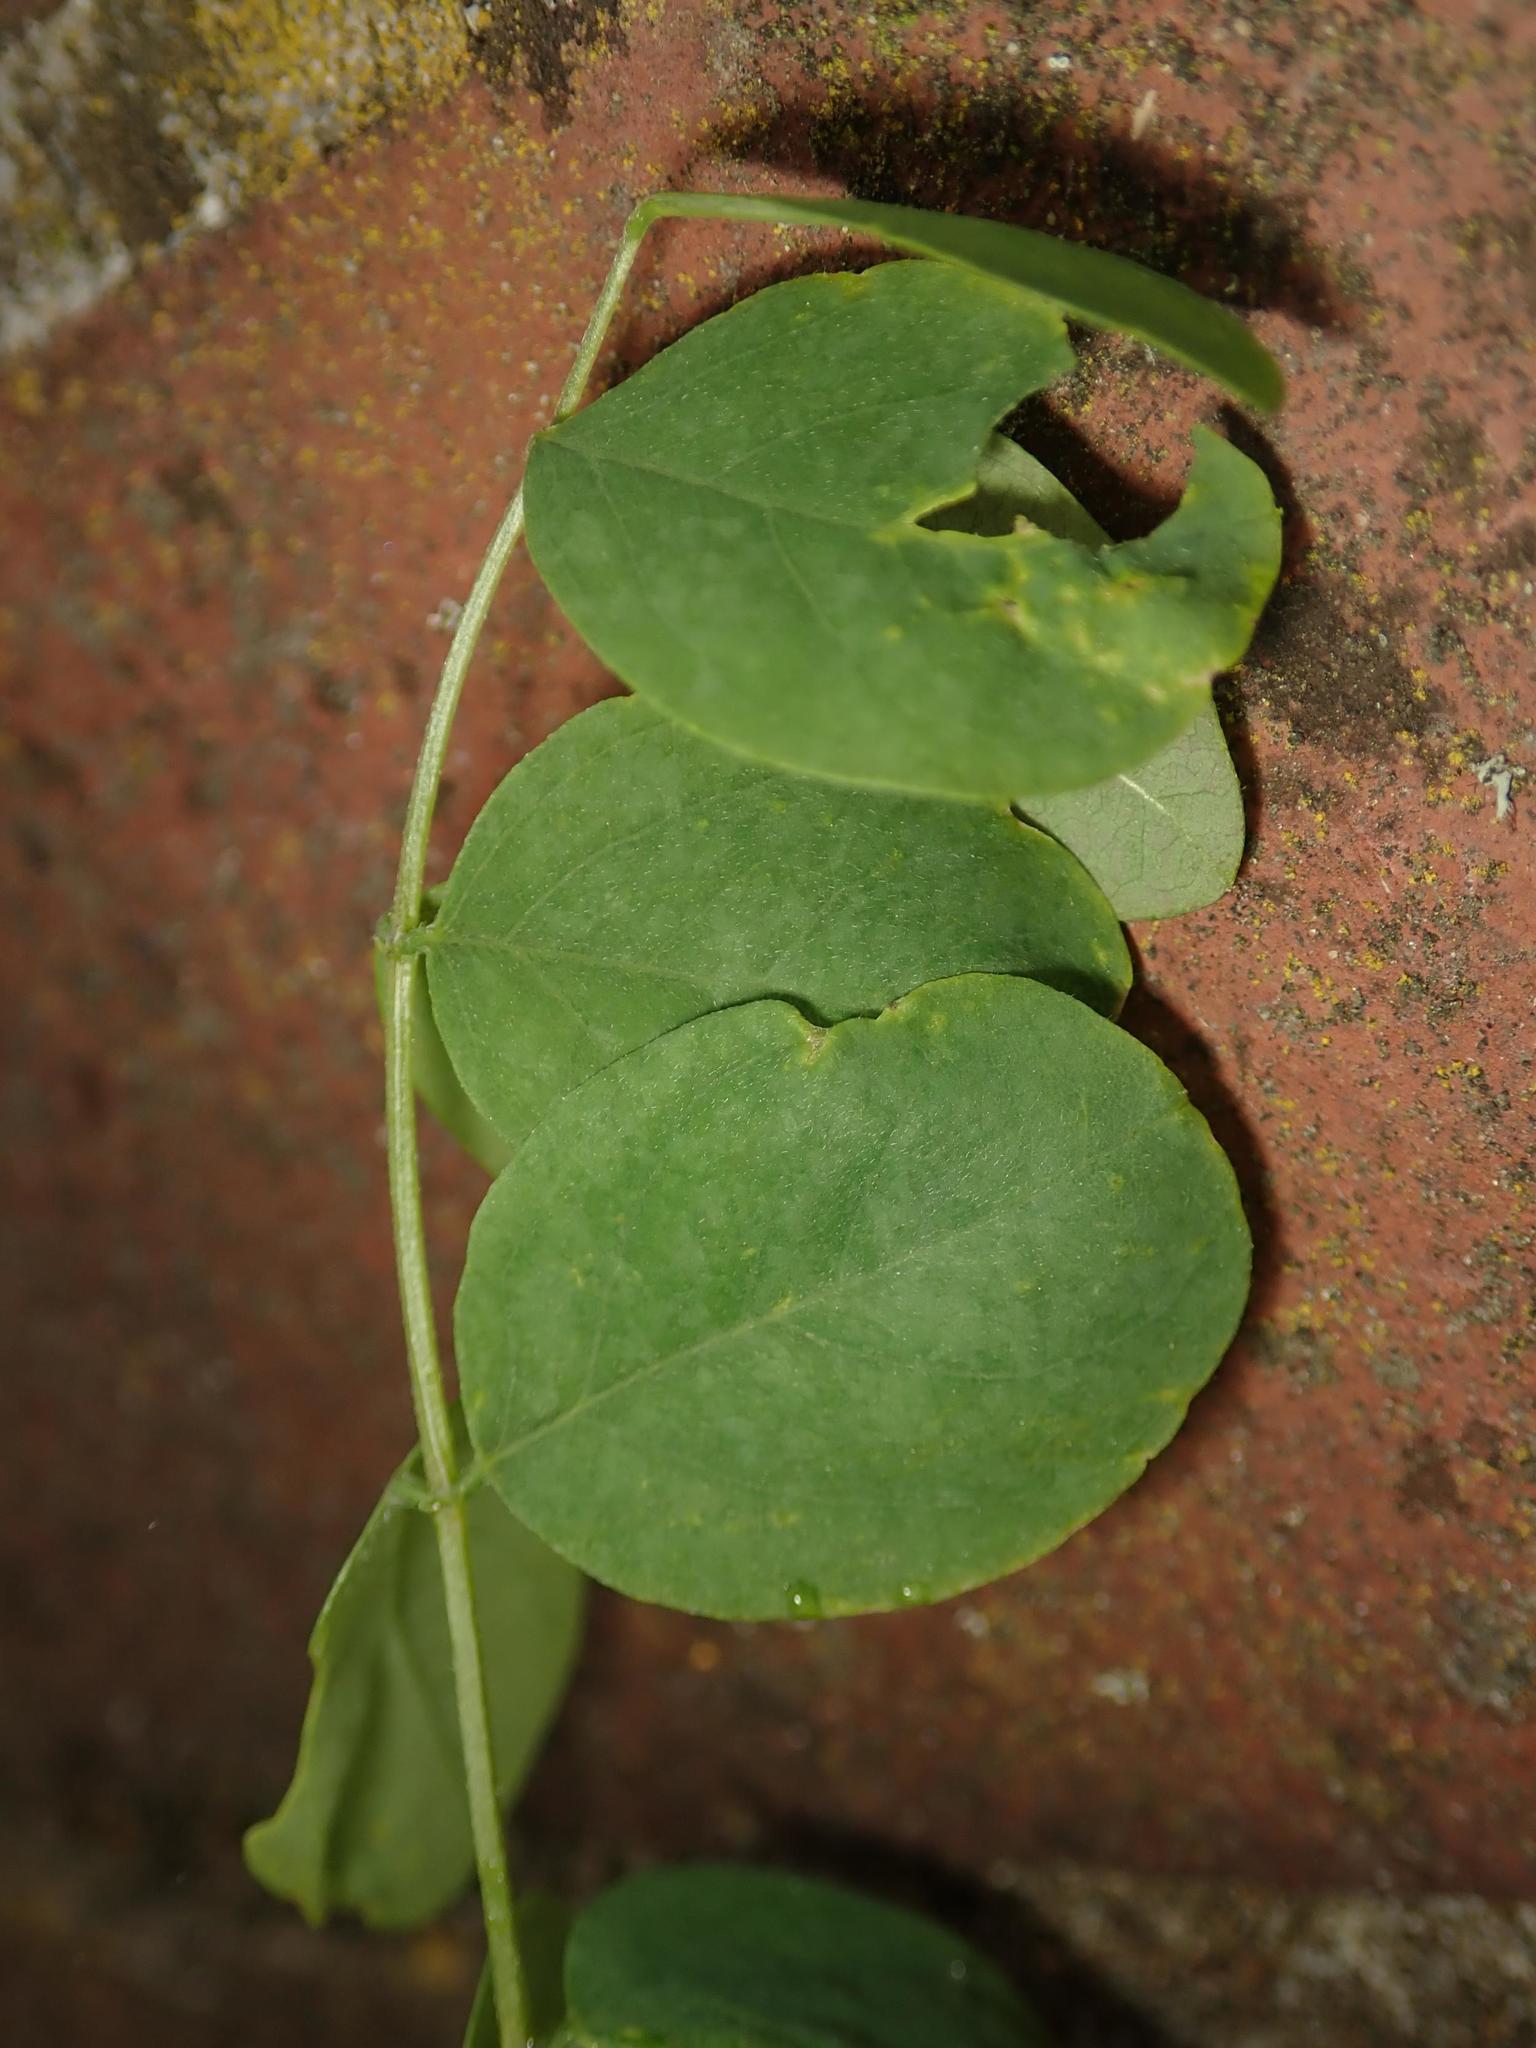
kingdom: Plantae
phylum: Tracheophyta
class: Magnoliopsida
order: Fabales
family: Fabaceae
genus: Robinia
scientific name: Robinia pseudoacacia
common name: Black locust
